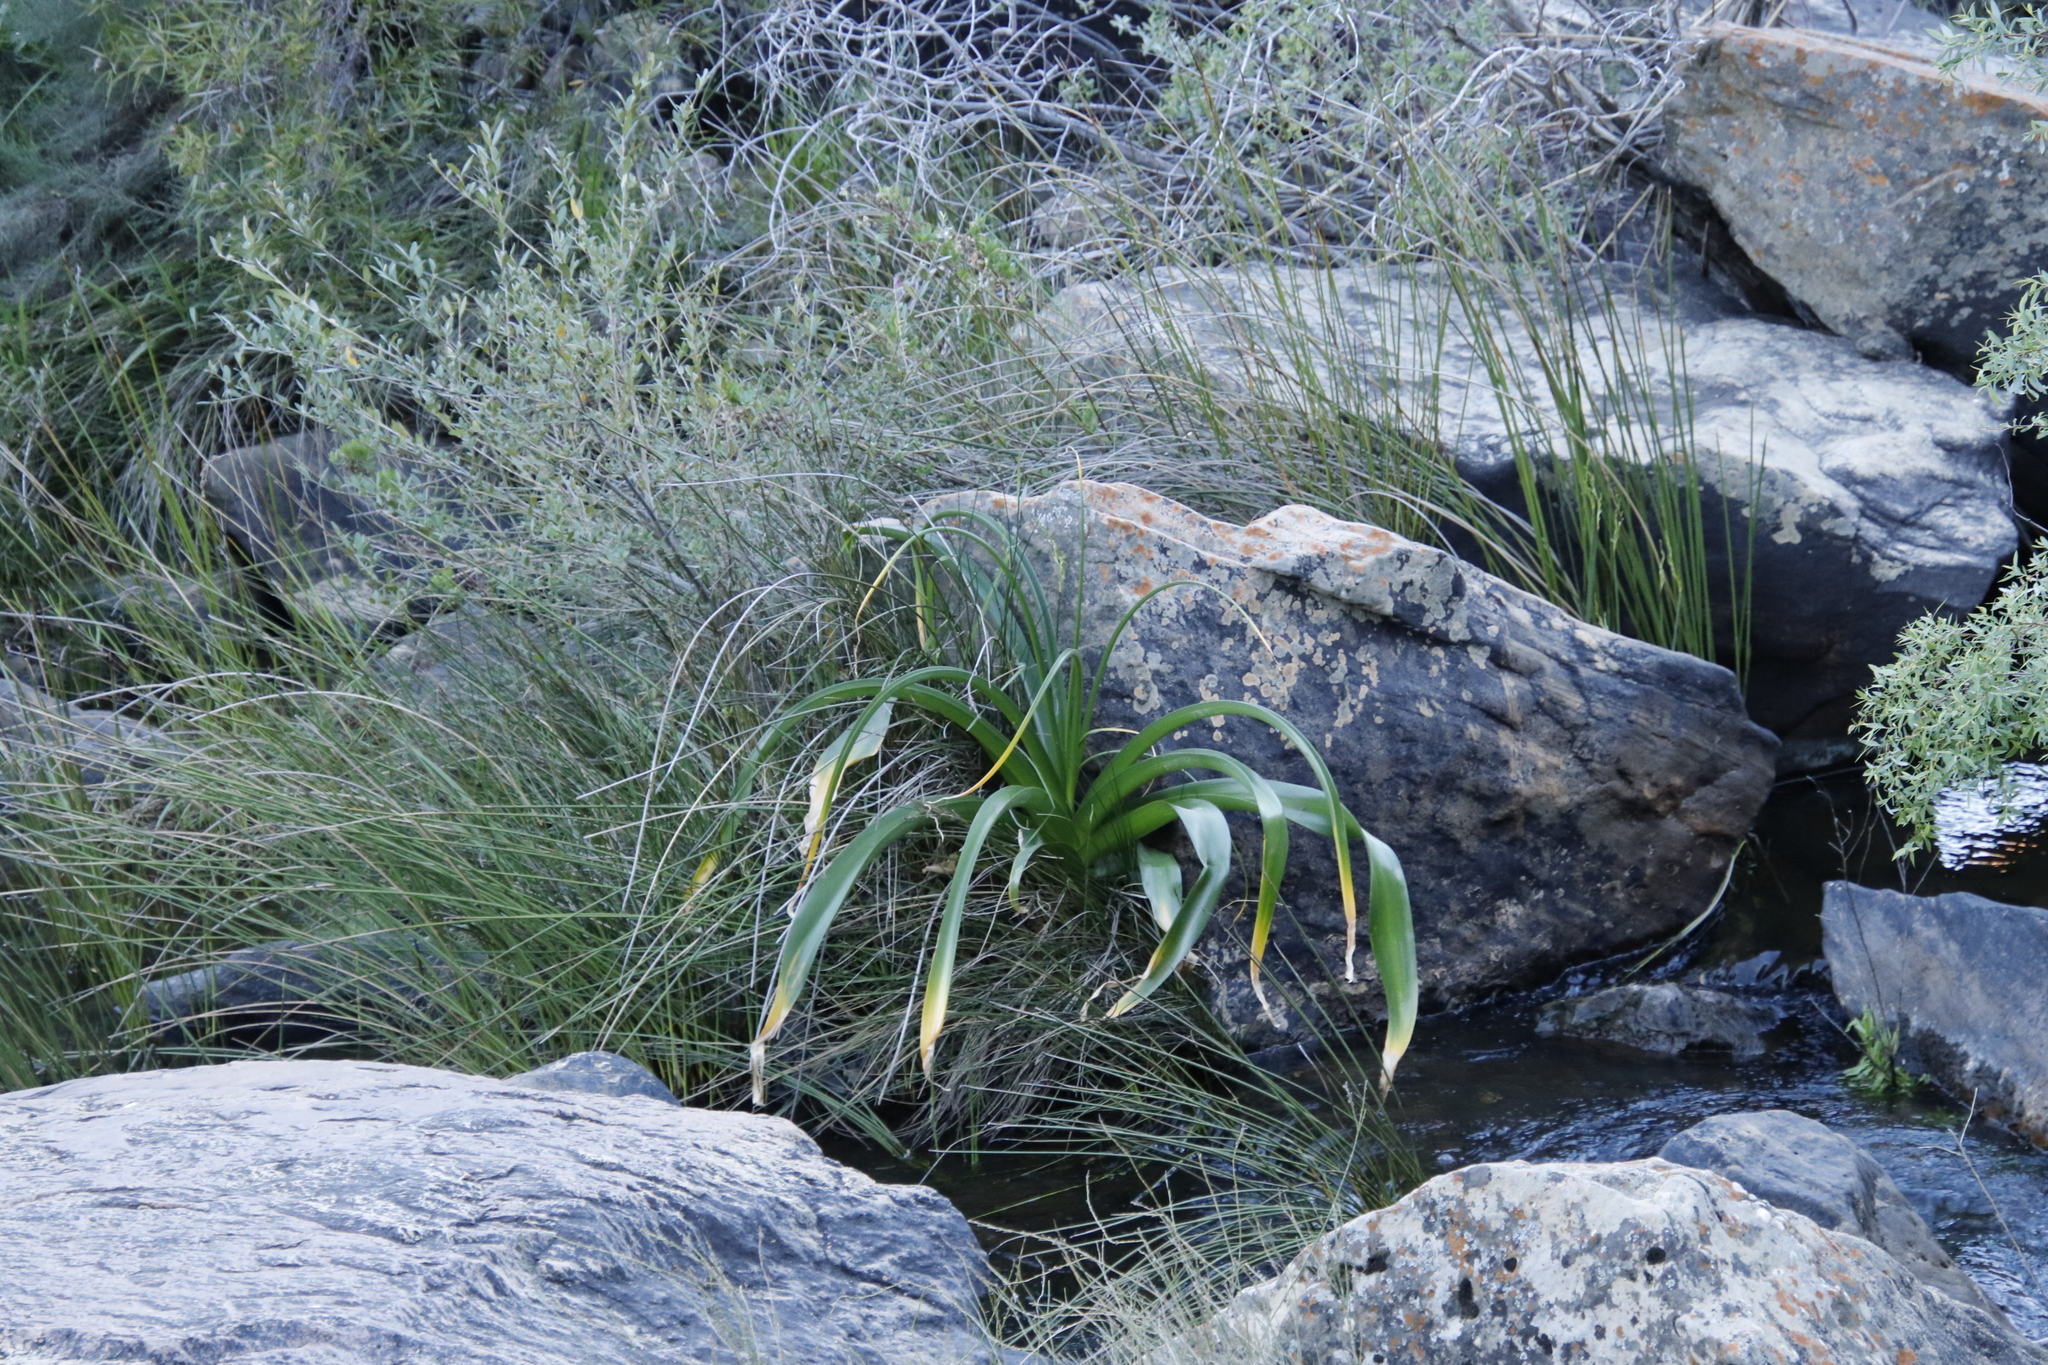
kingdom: Plantae
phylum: Tracheophyta
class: Liliopsida
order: Asparagales
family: Amaryllidaceae
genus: Crinum
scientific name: Crinum variabile
